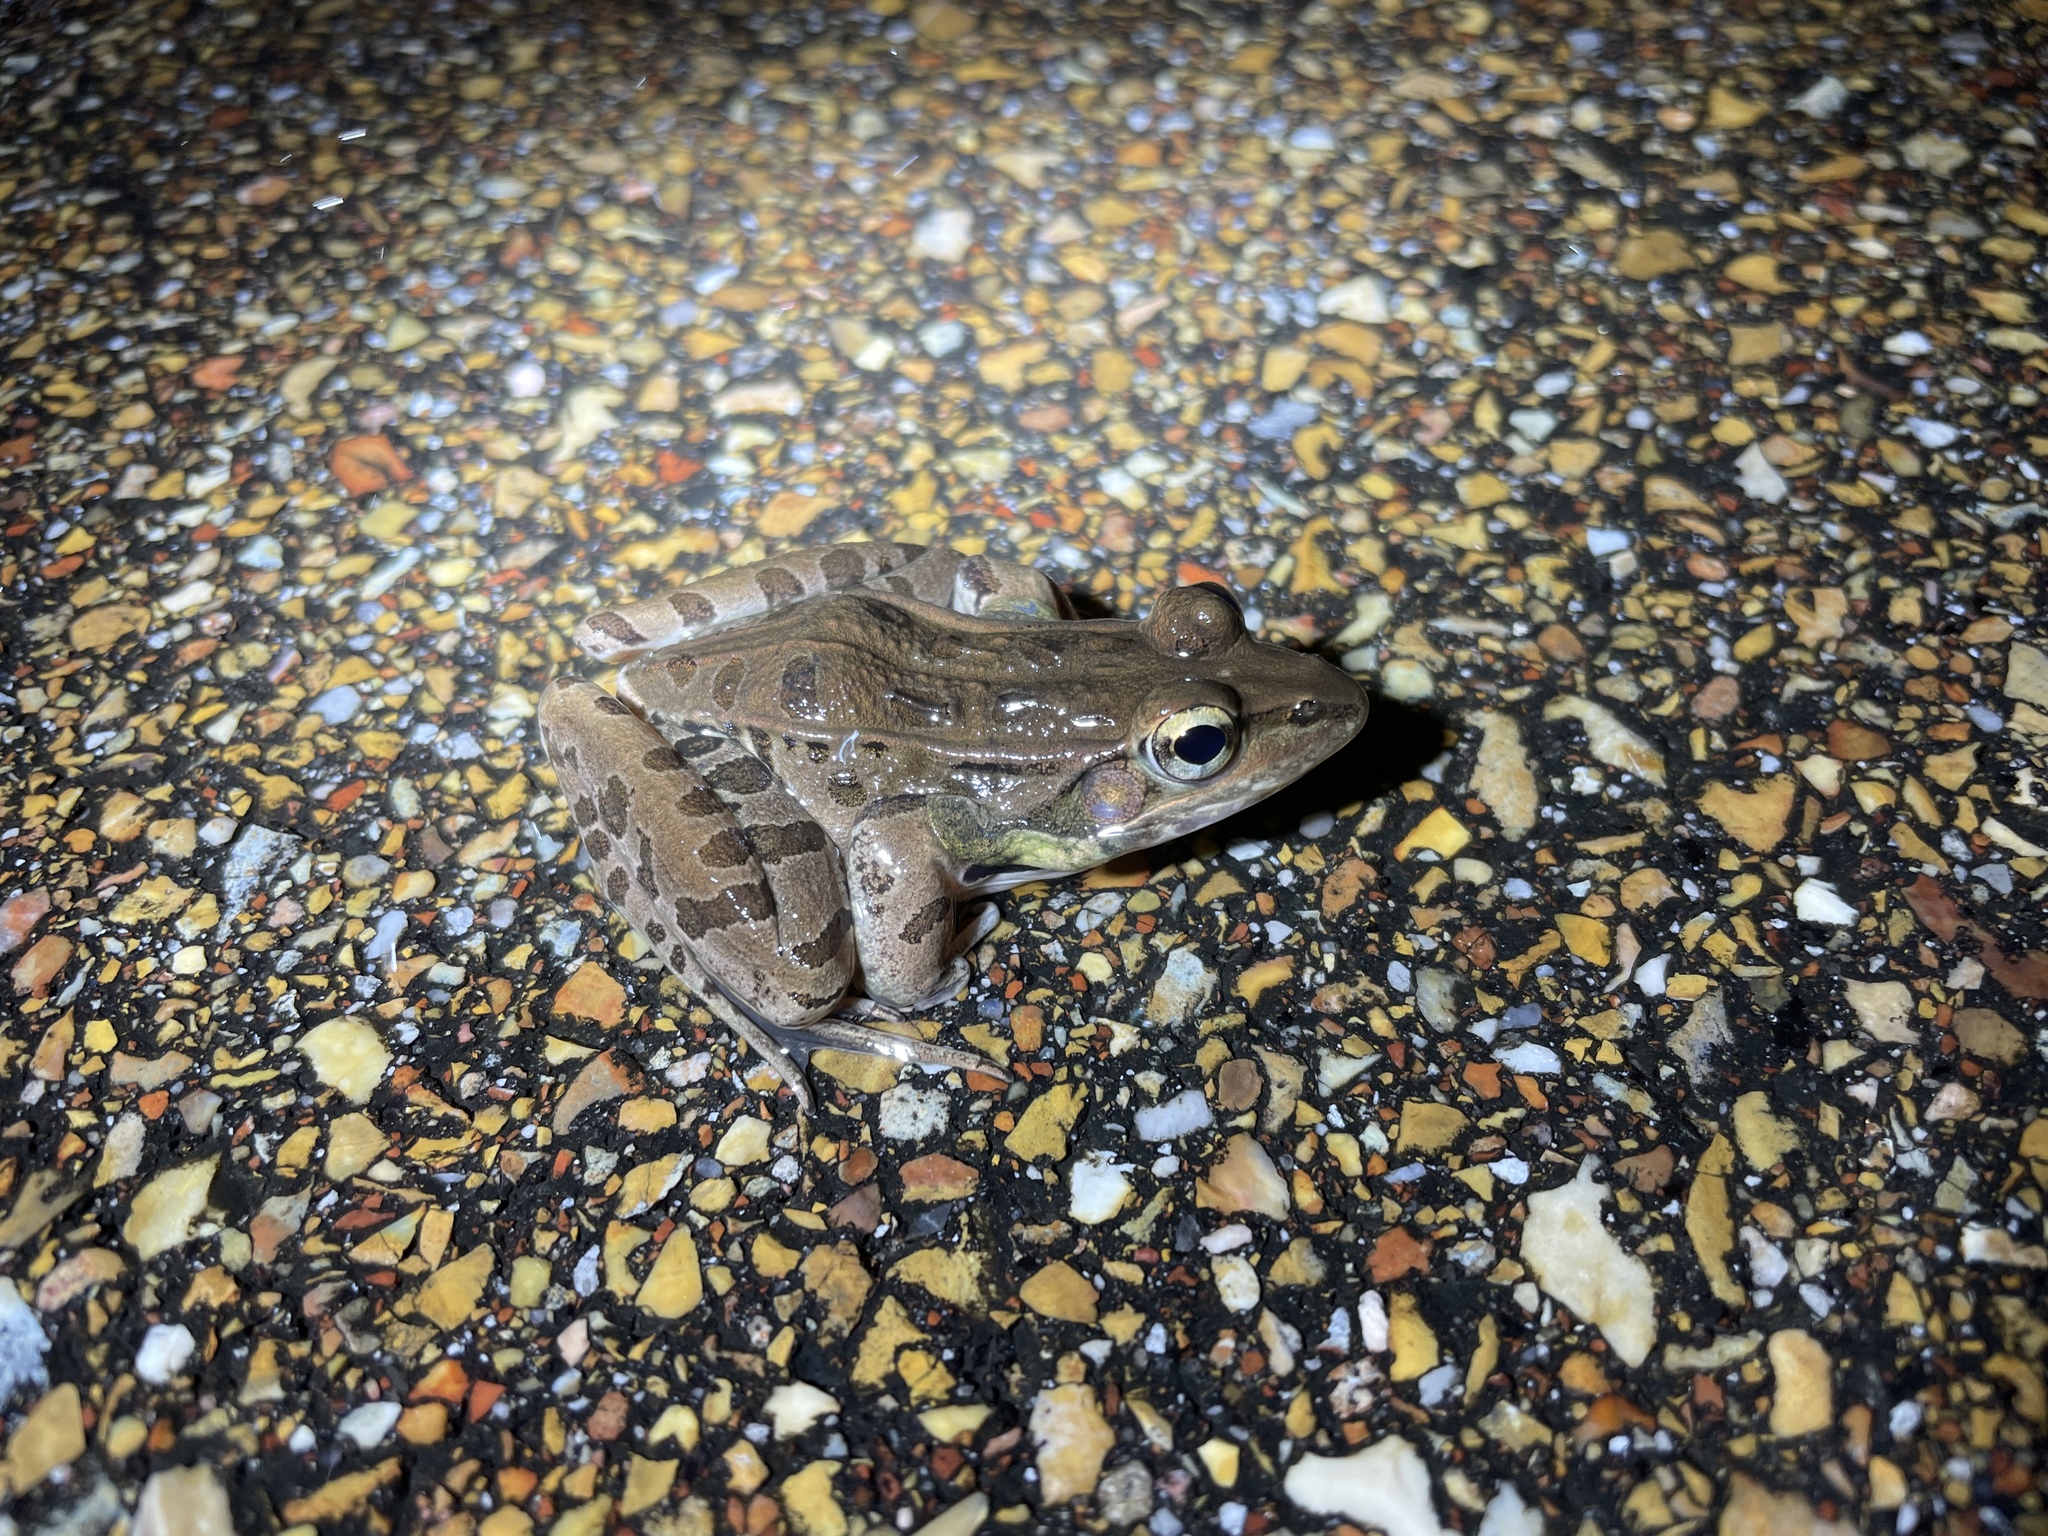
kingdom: Animalia
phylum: Chordata
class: Amphibia
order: Anura
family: Ranidae
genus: Lithobates
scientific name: Lithobates sphenocephalus
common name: Southern leopard frog
